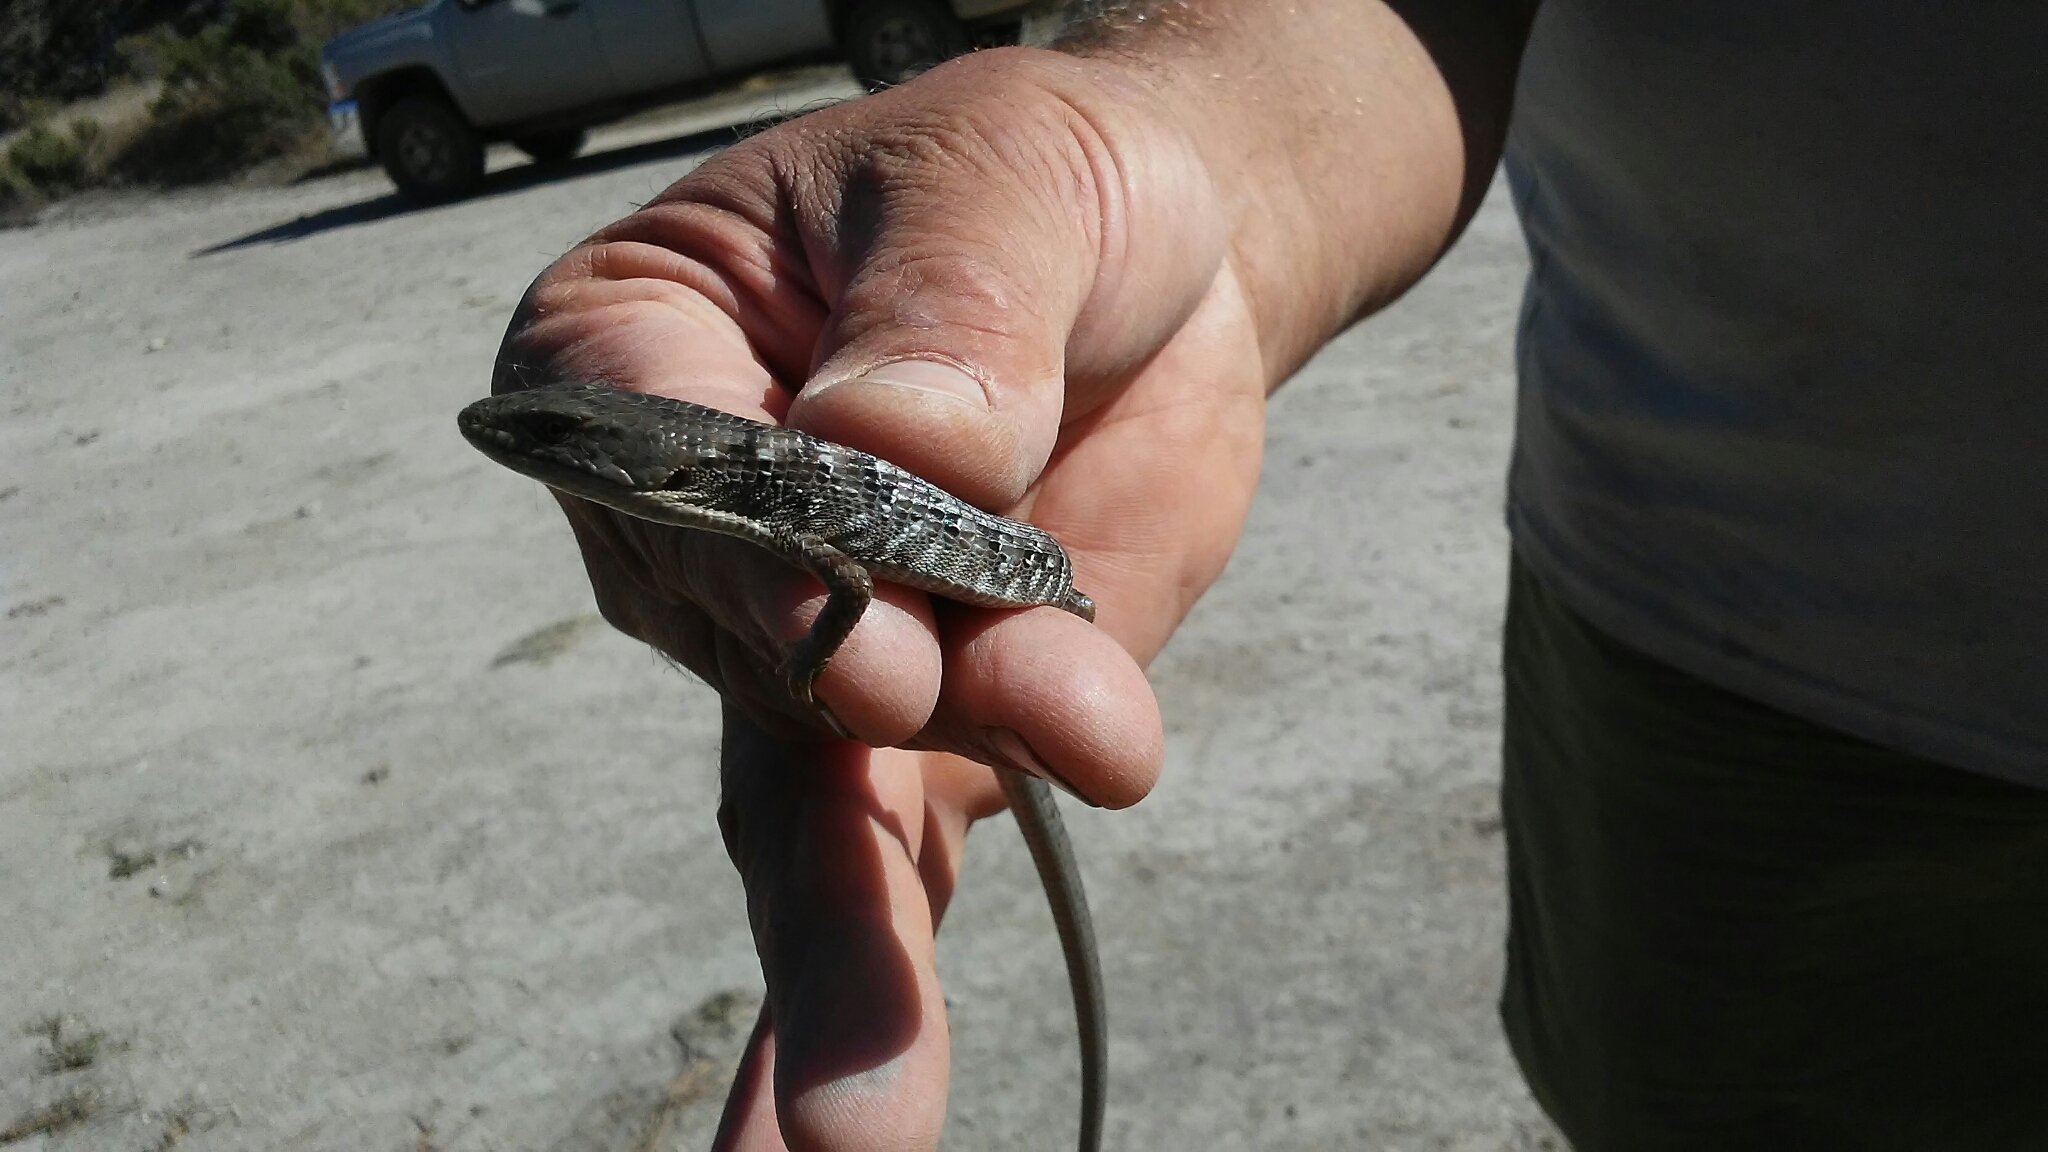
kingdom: Animalia
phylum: Chordata
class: Squamata
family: Anguidae
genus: Elgaria
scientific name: Elgaria multicarinata
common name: Southern alligator lizard
